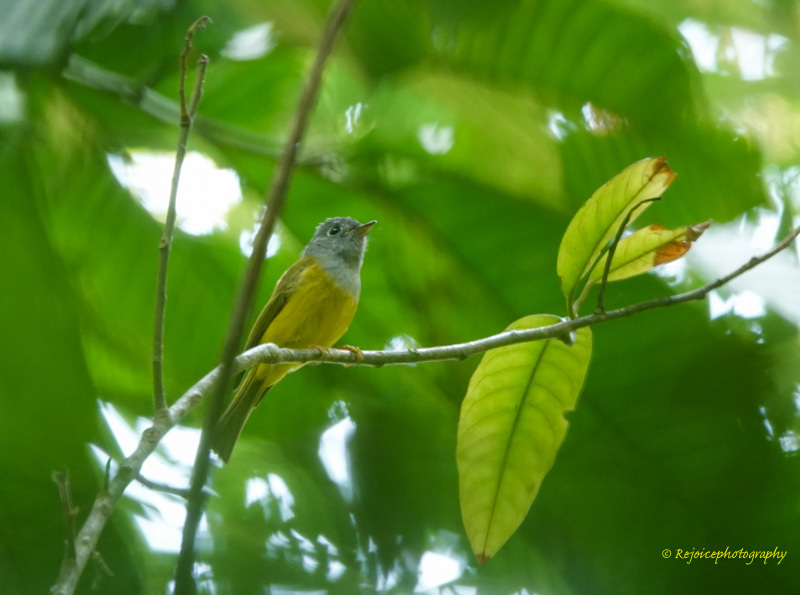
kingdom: Animalia
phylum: Chordata
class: Aves
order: Passeriformes
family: Stenostiridae
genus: Culicicapa
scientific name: Culicicapa ceylonensis
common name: Grey-headed canary-flycatcher
